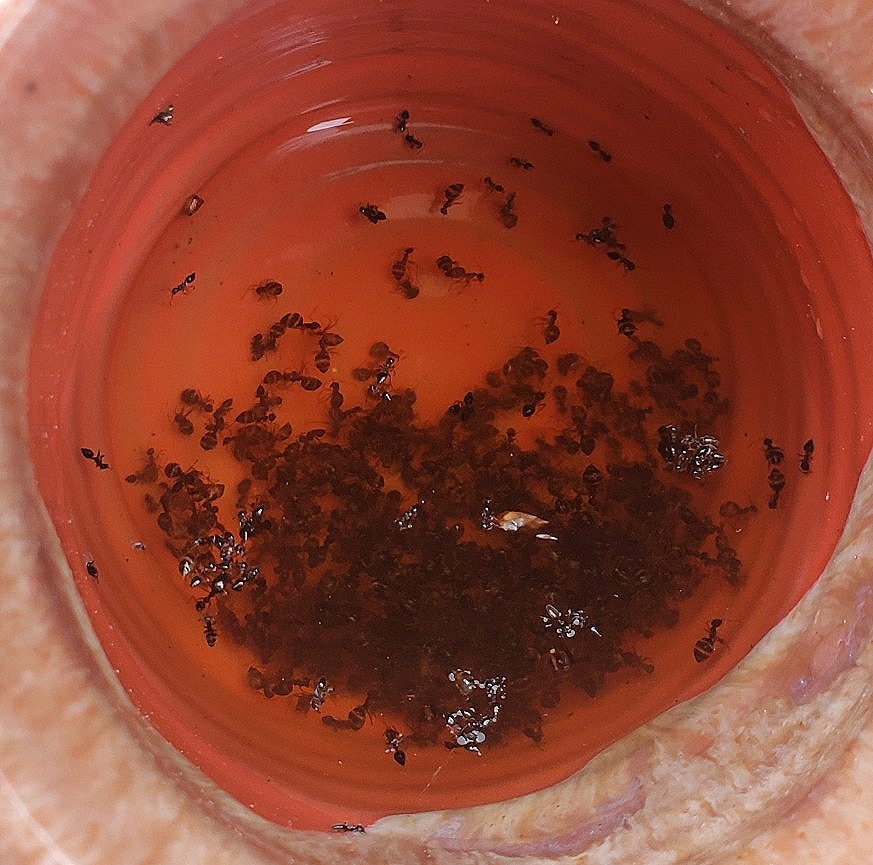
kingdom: Animalia
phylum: Arthropoda
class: Insecta
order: Hymenoptera
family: Formicidae
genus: Prenolepis
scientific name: Prenolepis imparis
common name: Small honey ant
